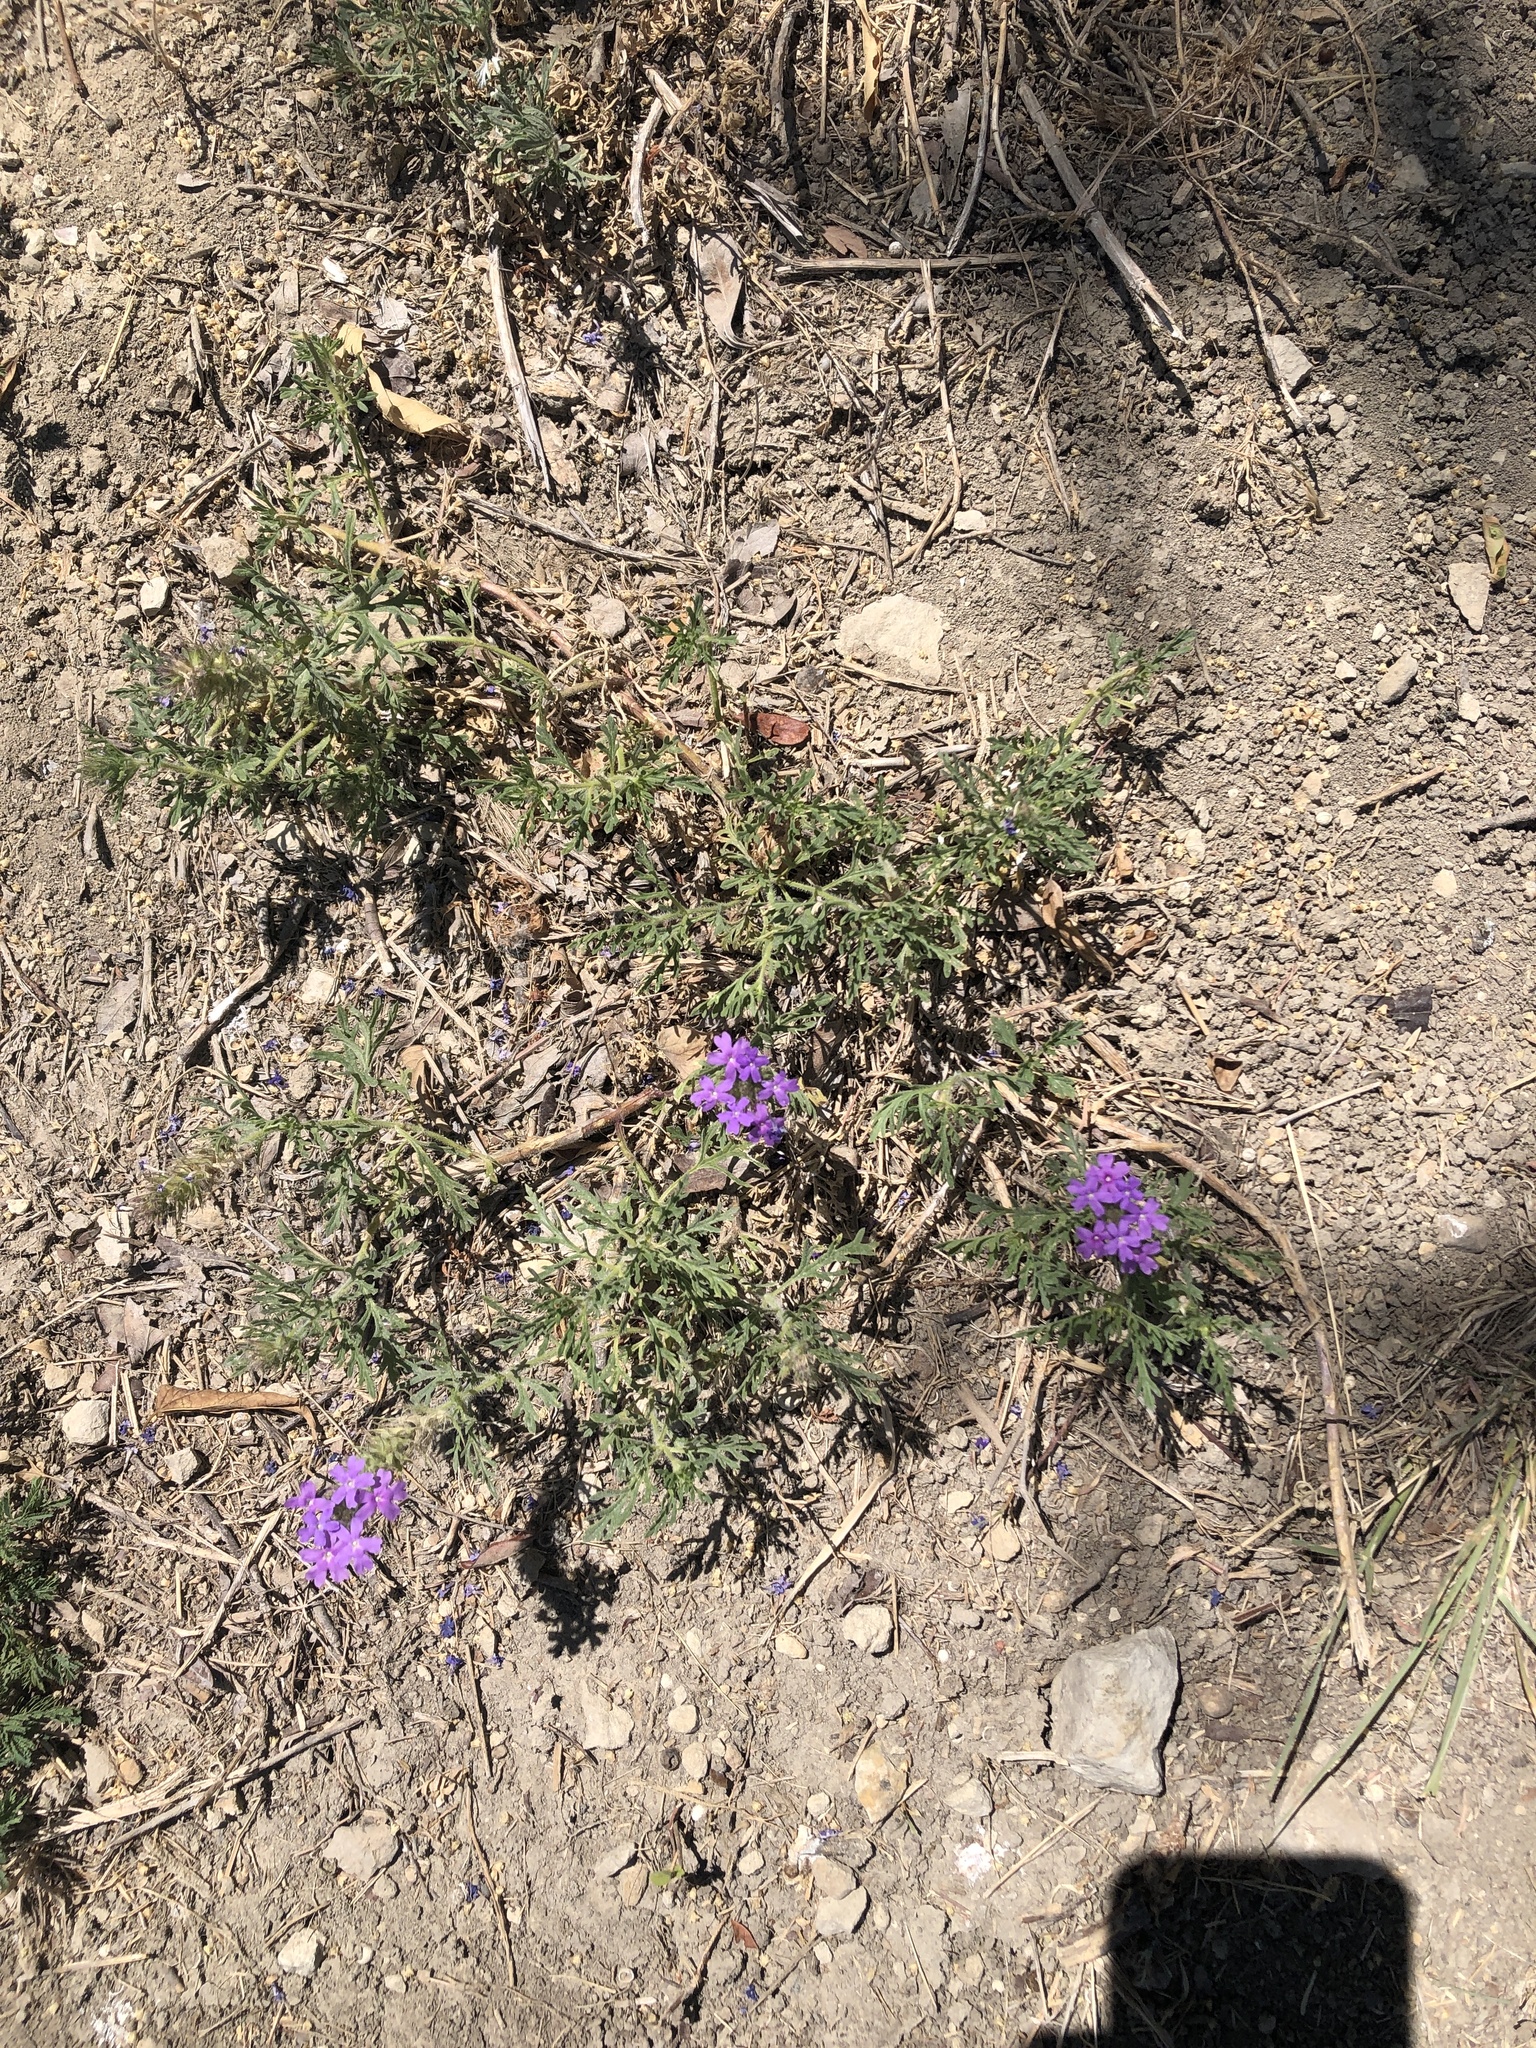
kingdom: Plantae
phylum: Tracheophyta
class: Magnoliopsida
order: Lamiales
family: Verbenaceae
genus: Verbena
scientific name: Verbena bipinnatifida
